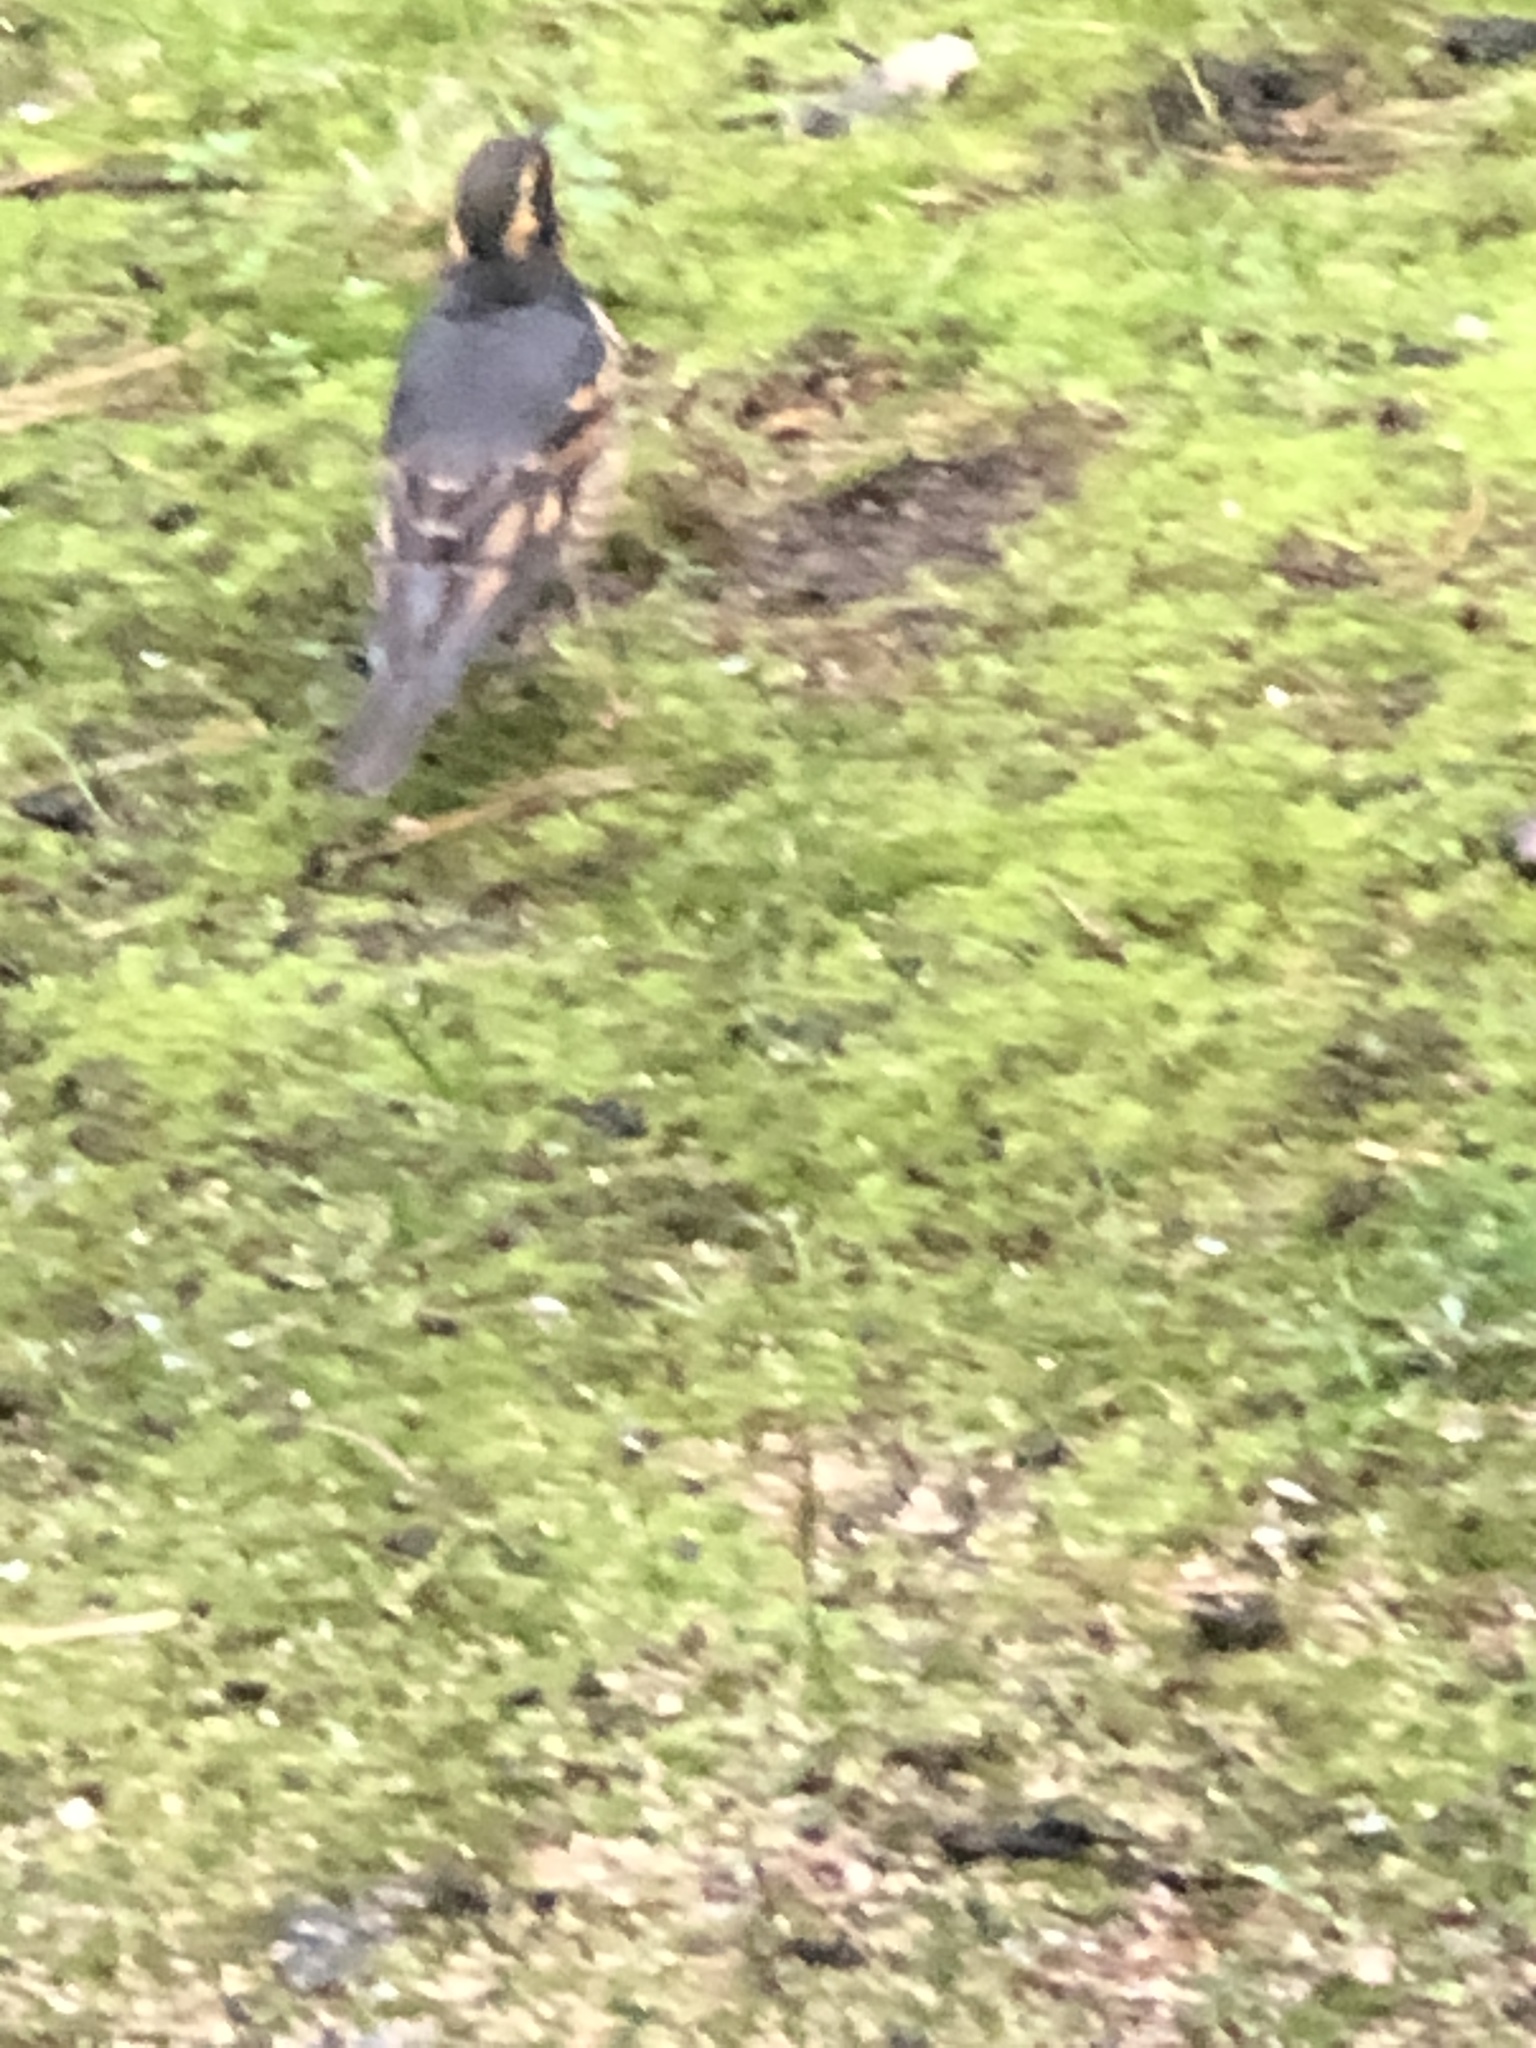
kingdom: Animalia
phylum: Chordata
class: Aves
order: Passeriformes
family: Turdidae
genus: Ixoreus
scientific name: Ixoreus naevius
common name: Varied thrush
